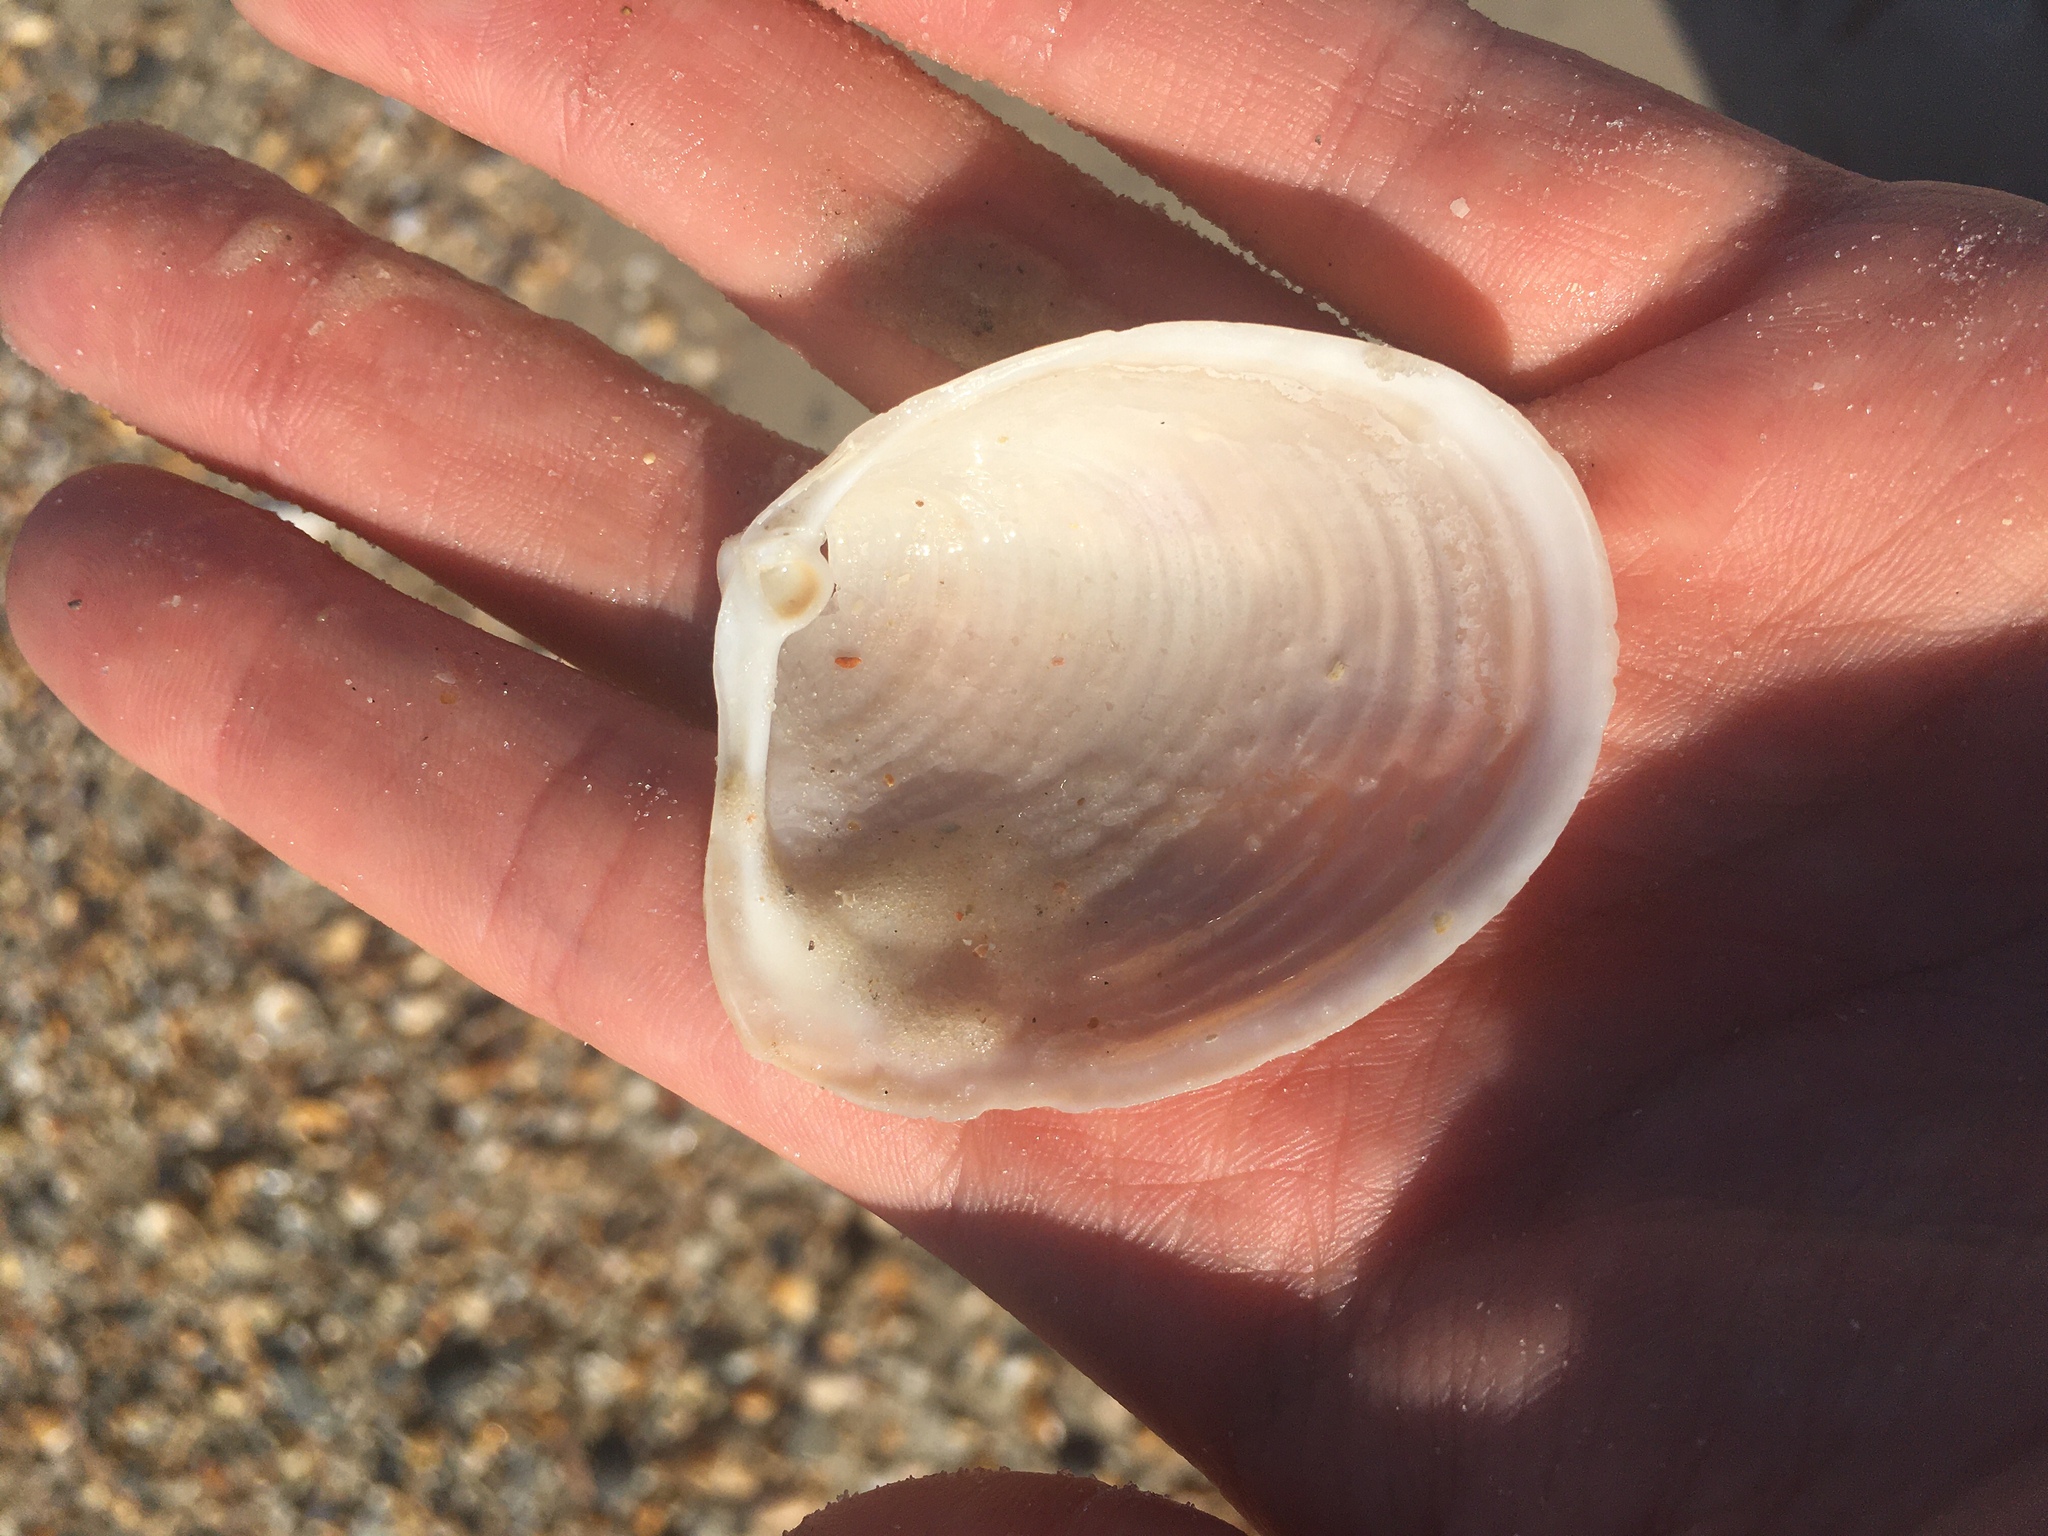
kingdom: Animalia
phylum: Mollusca
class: Bivalvia
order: Venerida
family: Anatinellidae
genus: Raeta
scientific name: Raeta plicatella
